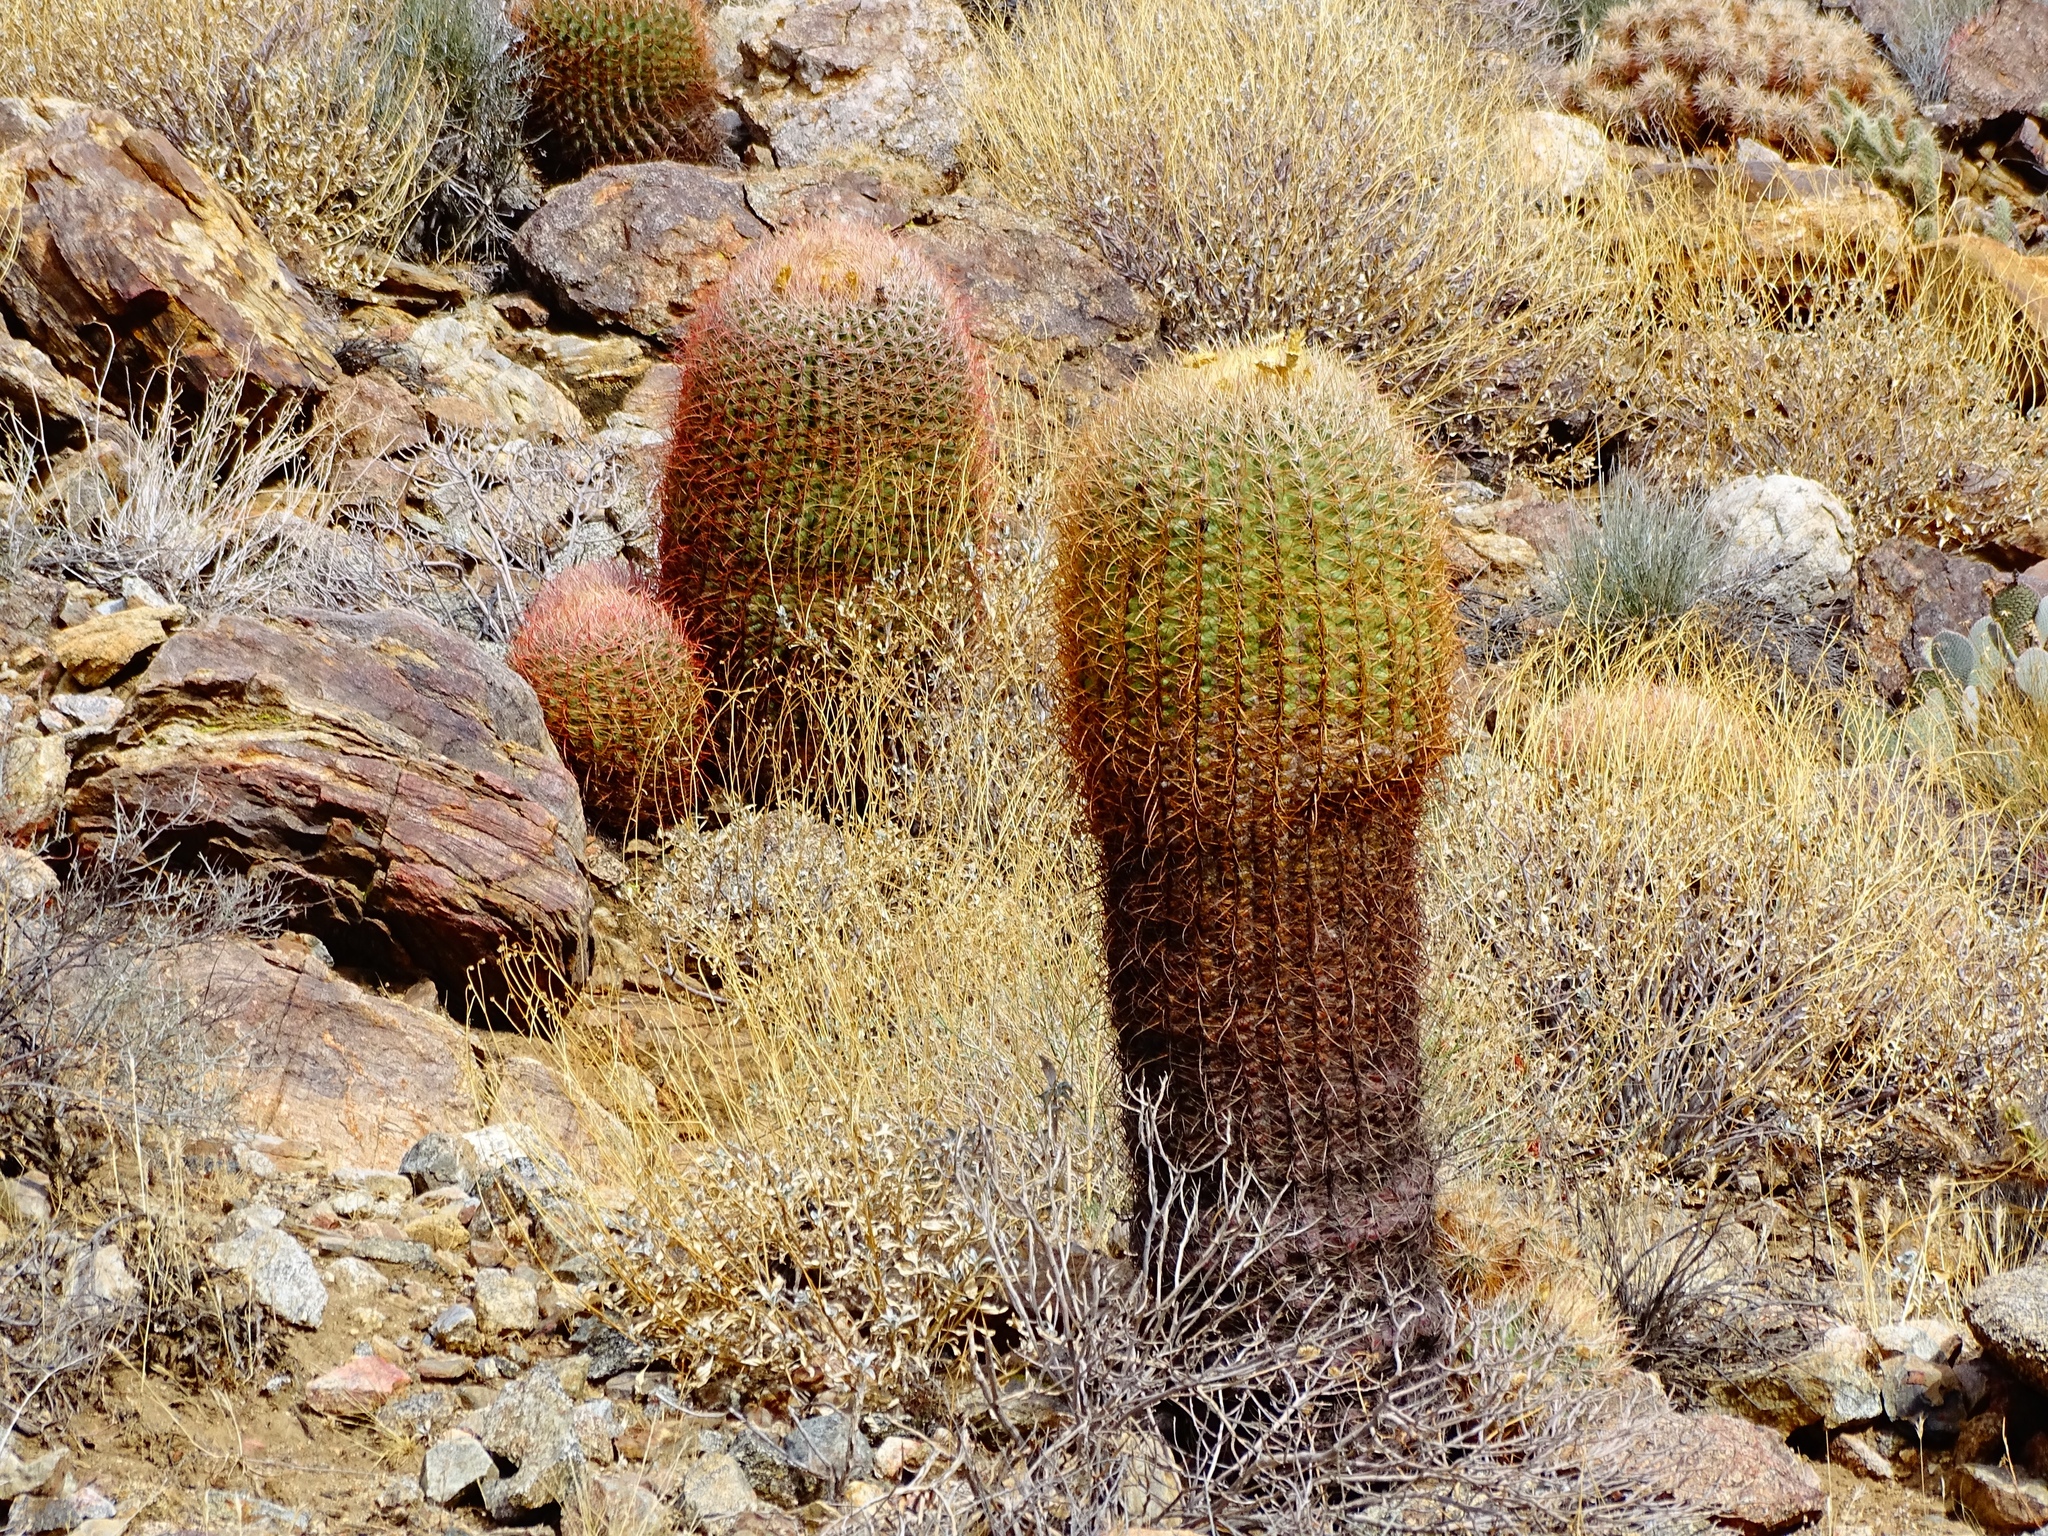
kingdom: Plantae
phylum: Tracheophyta
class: Magnoliopsida
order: Caryophyllales
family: Cactaceae
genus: Ferocactus
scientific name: Ferocactus cylindraceus
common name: California barrel cactus
